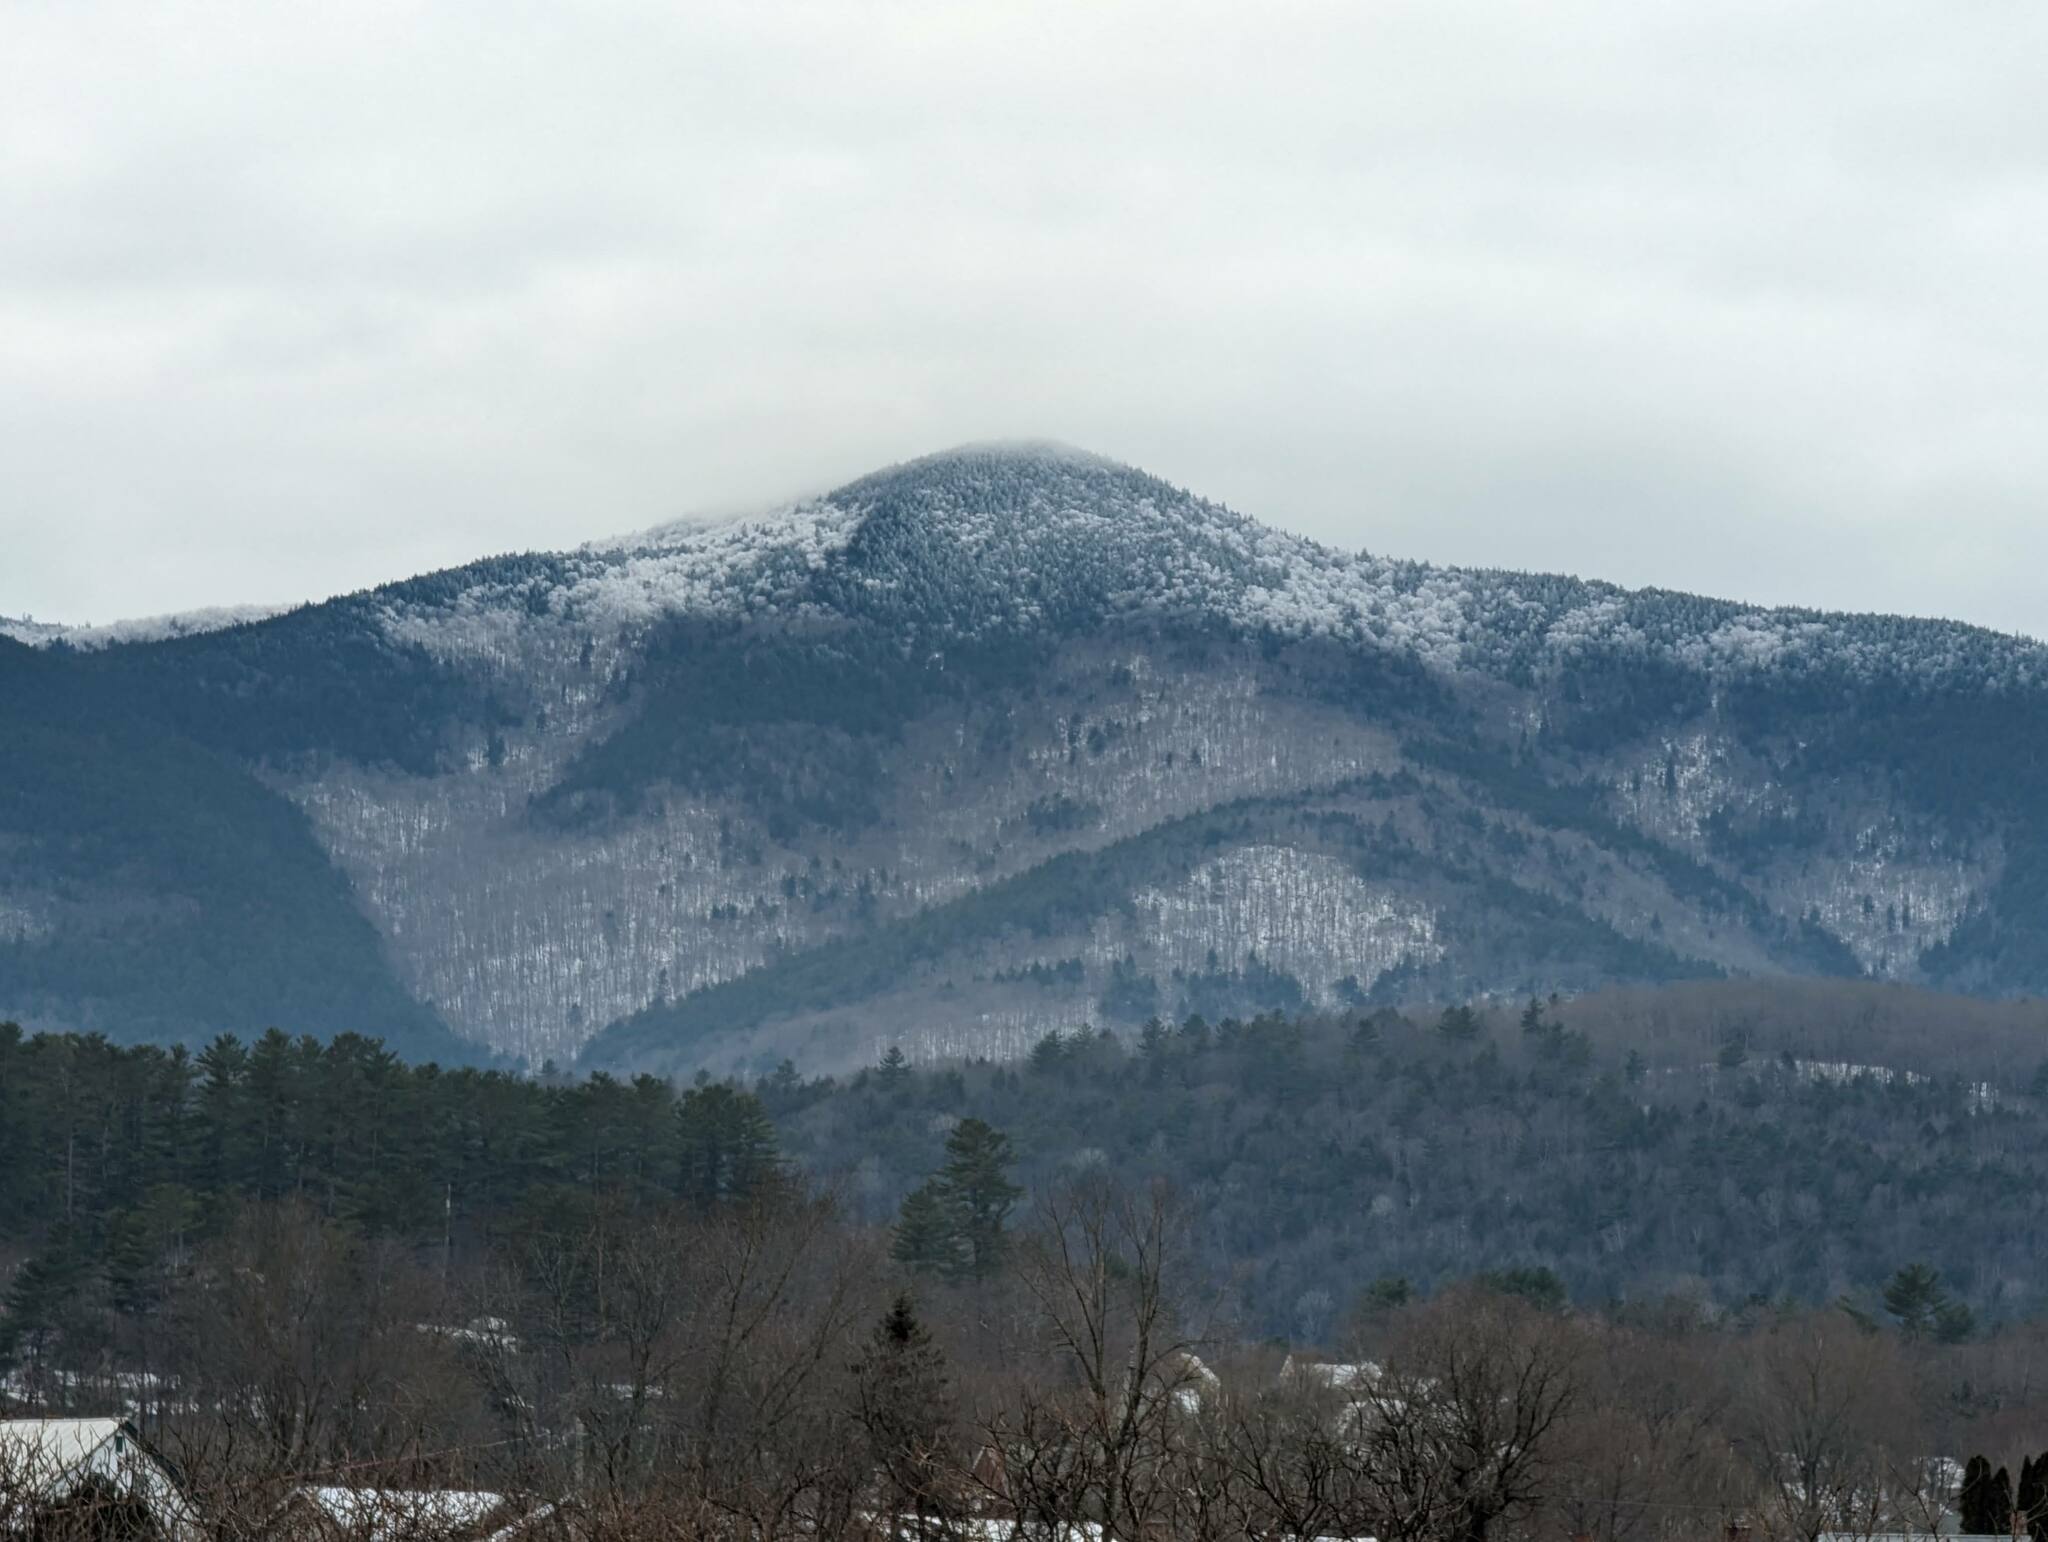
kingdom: Plantae
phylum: Tracheophyta
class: Pinopsida
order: Pinales
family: Pinaceae
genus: Pinus
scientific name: Pinus strobus
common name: Weymouth pine
